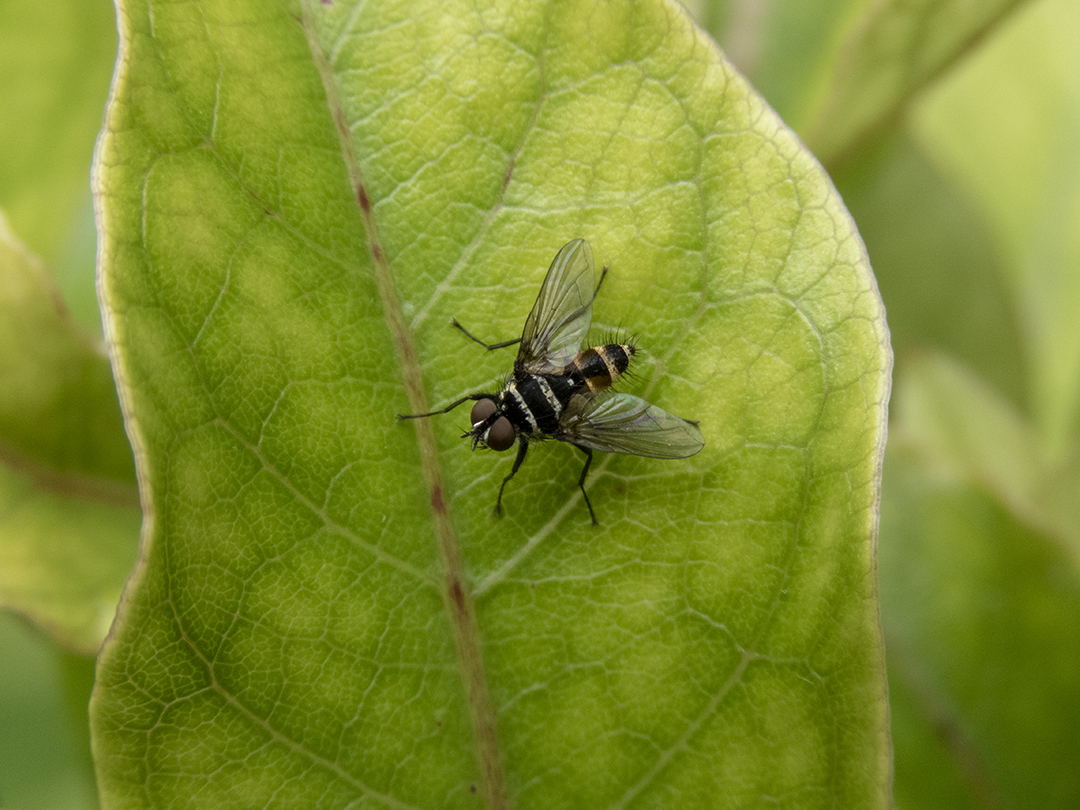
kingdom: Animalia
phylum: Arthropoda
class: Insecta
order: Diptera
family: Tachinidae
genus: Trigonospila
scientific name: Trigonospila brevifacies
